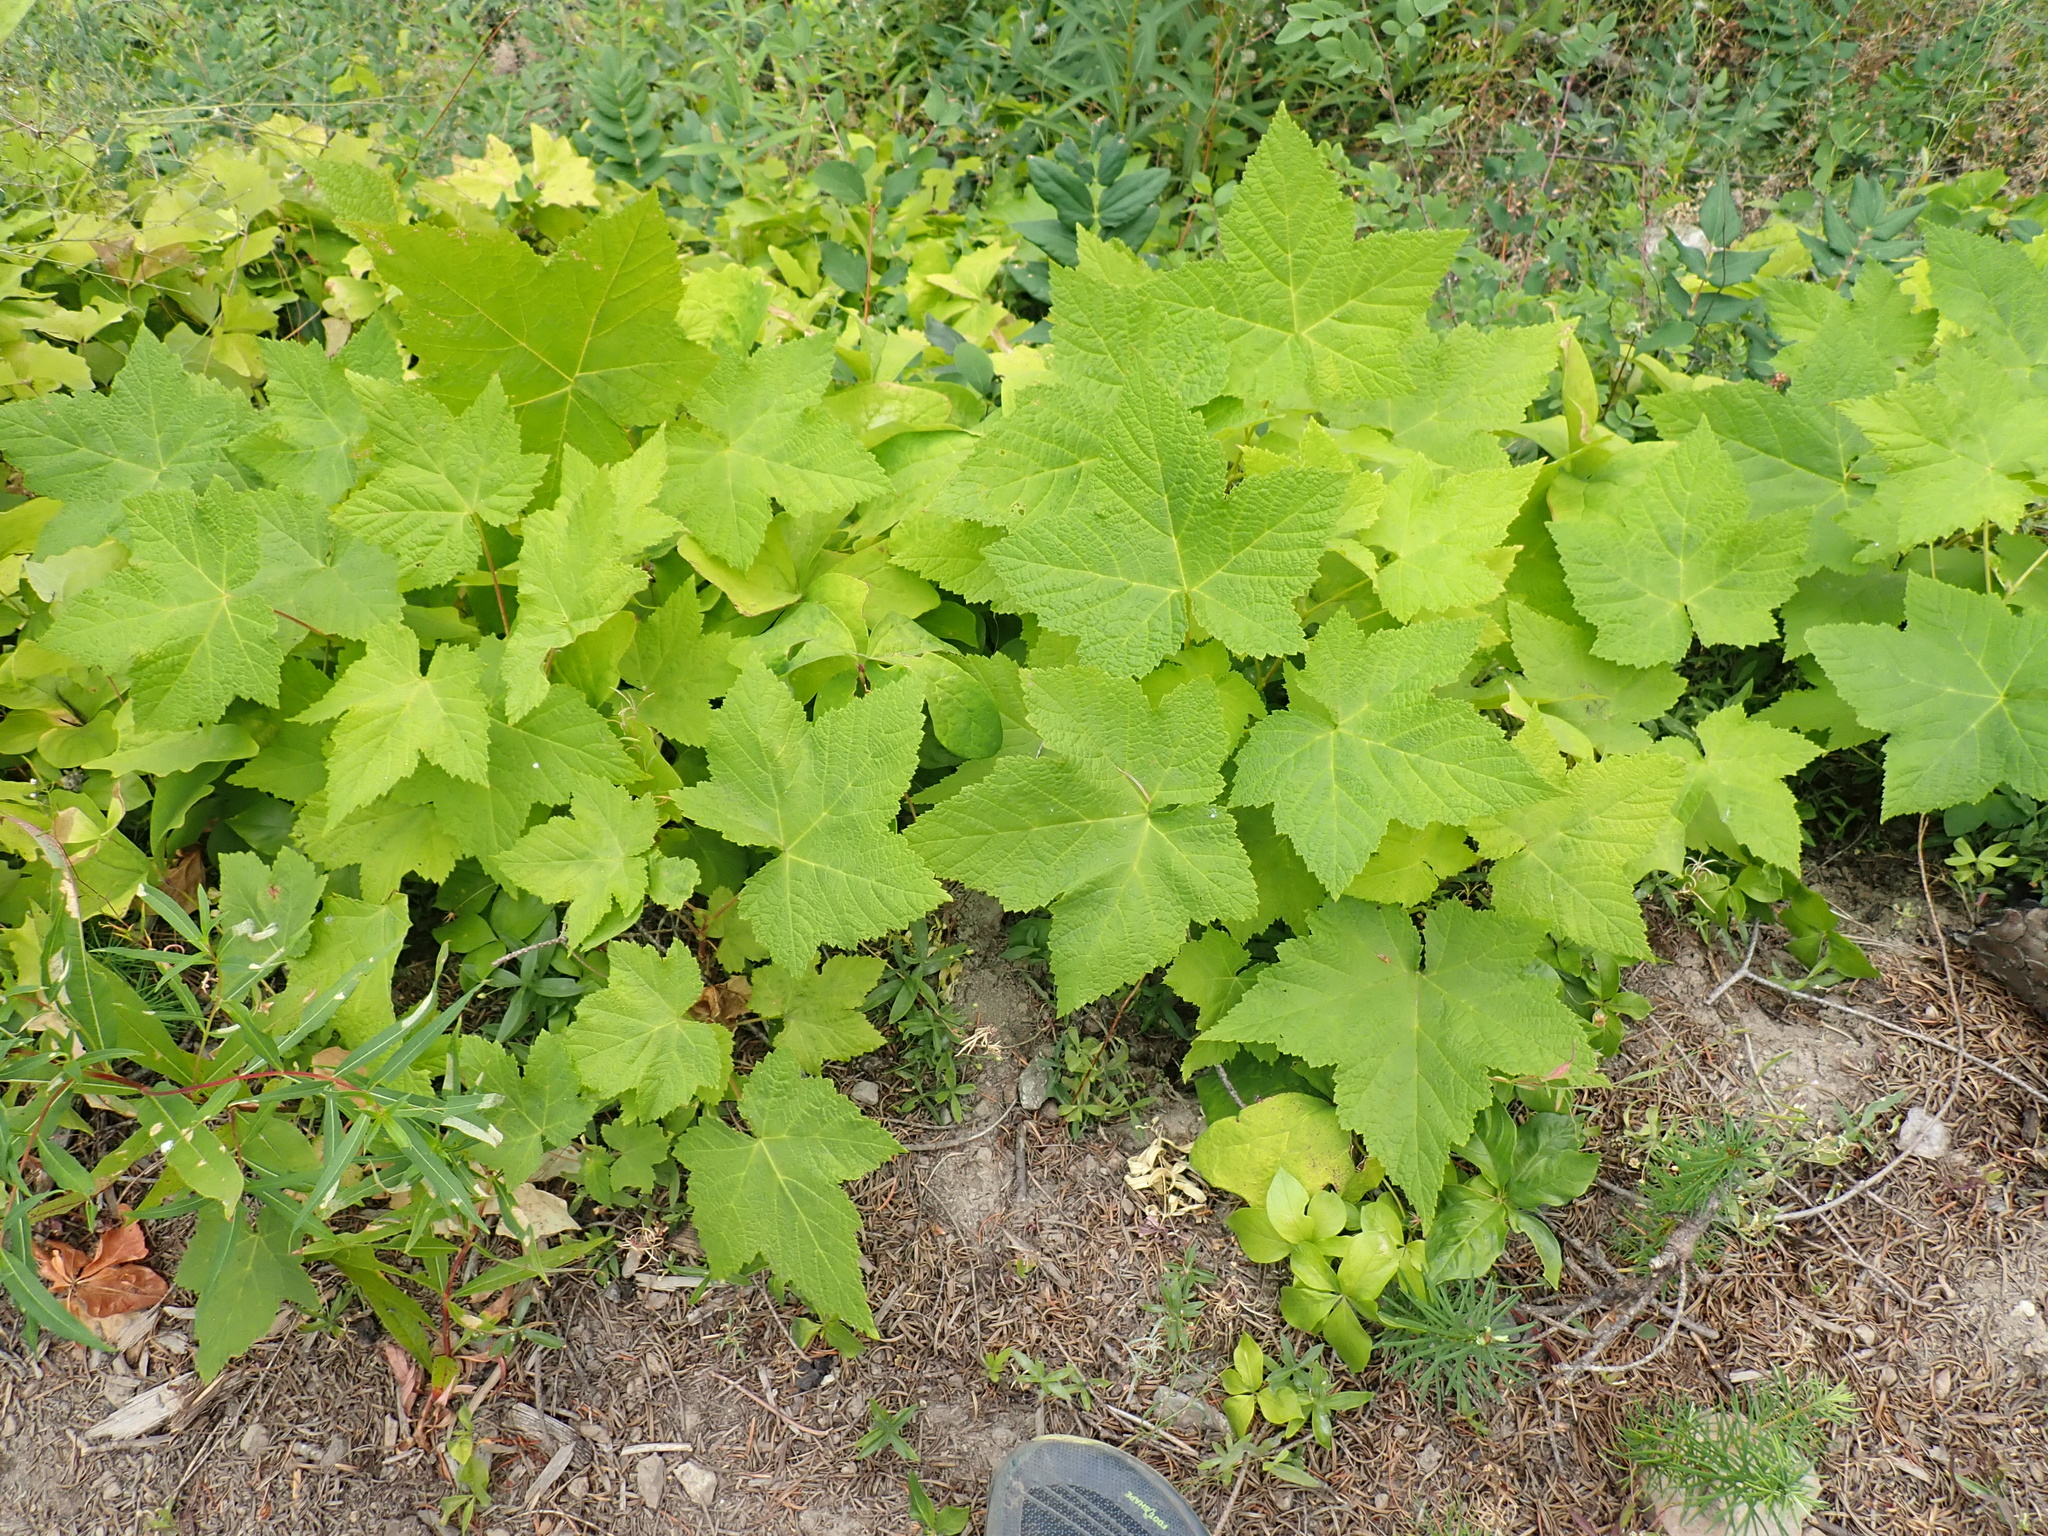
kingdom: Plantae
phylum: Tracheophyta
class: Magnoliopsida
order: Rosales
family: Rosaceae
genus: Rubus
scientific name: Rubus parviflorus
